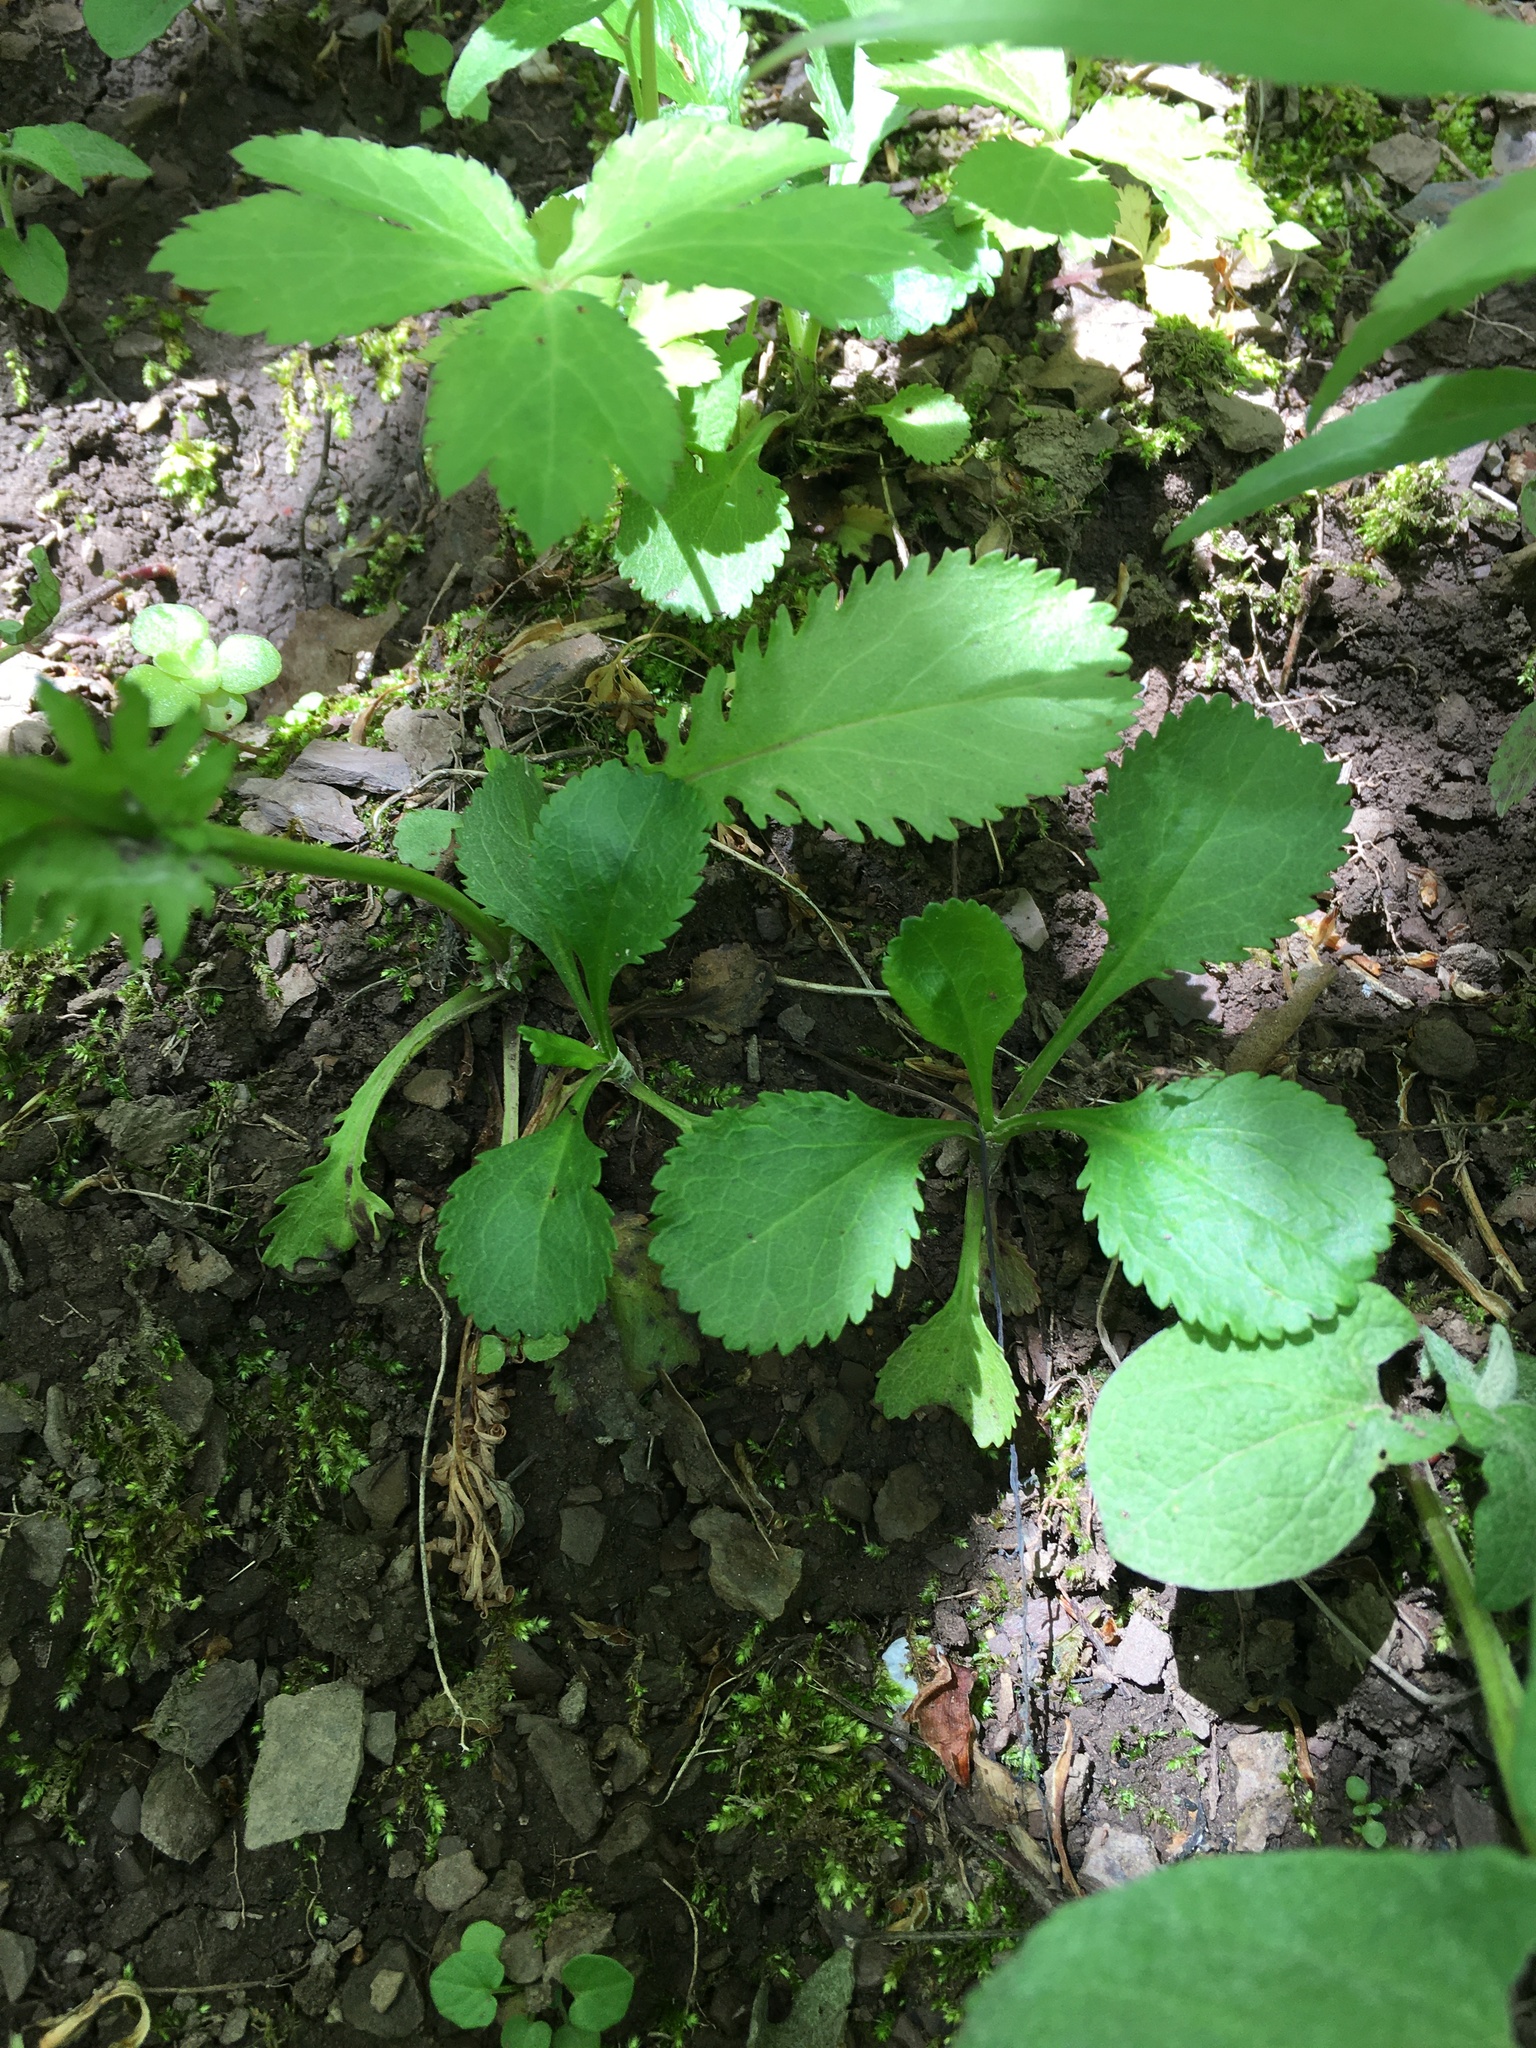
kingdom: Plantae
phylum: Tracheophyta
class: Magnoliopsida
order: Asterales
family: Asteraceae
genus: Packera
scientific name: Packera obovata
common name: Round-leaf ragwort
